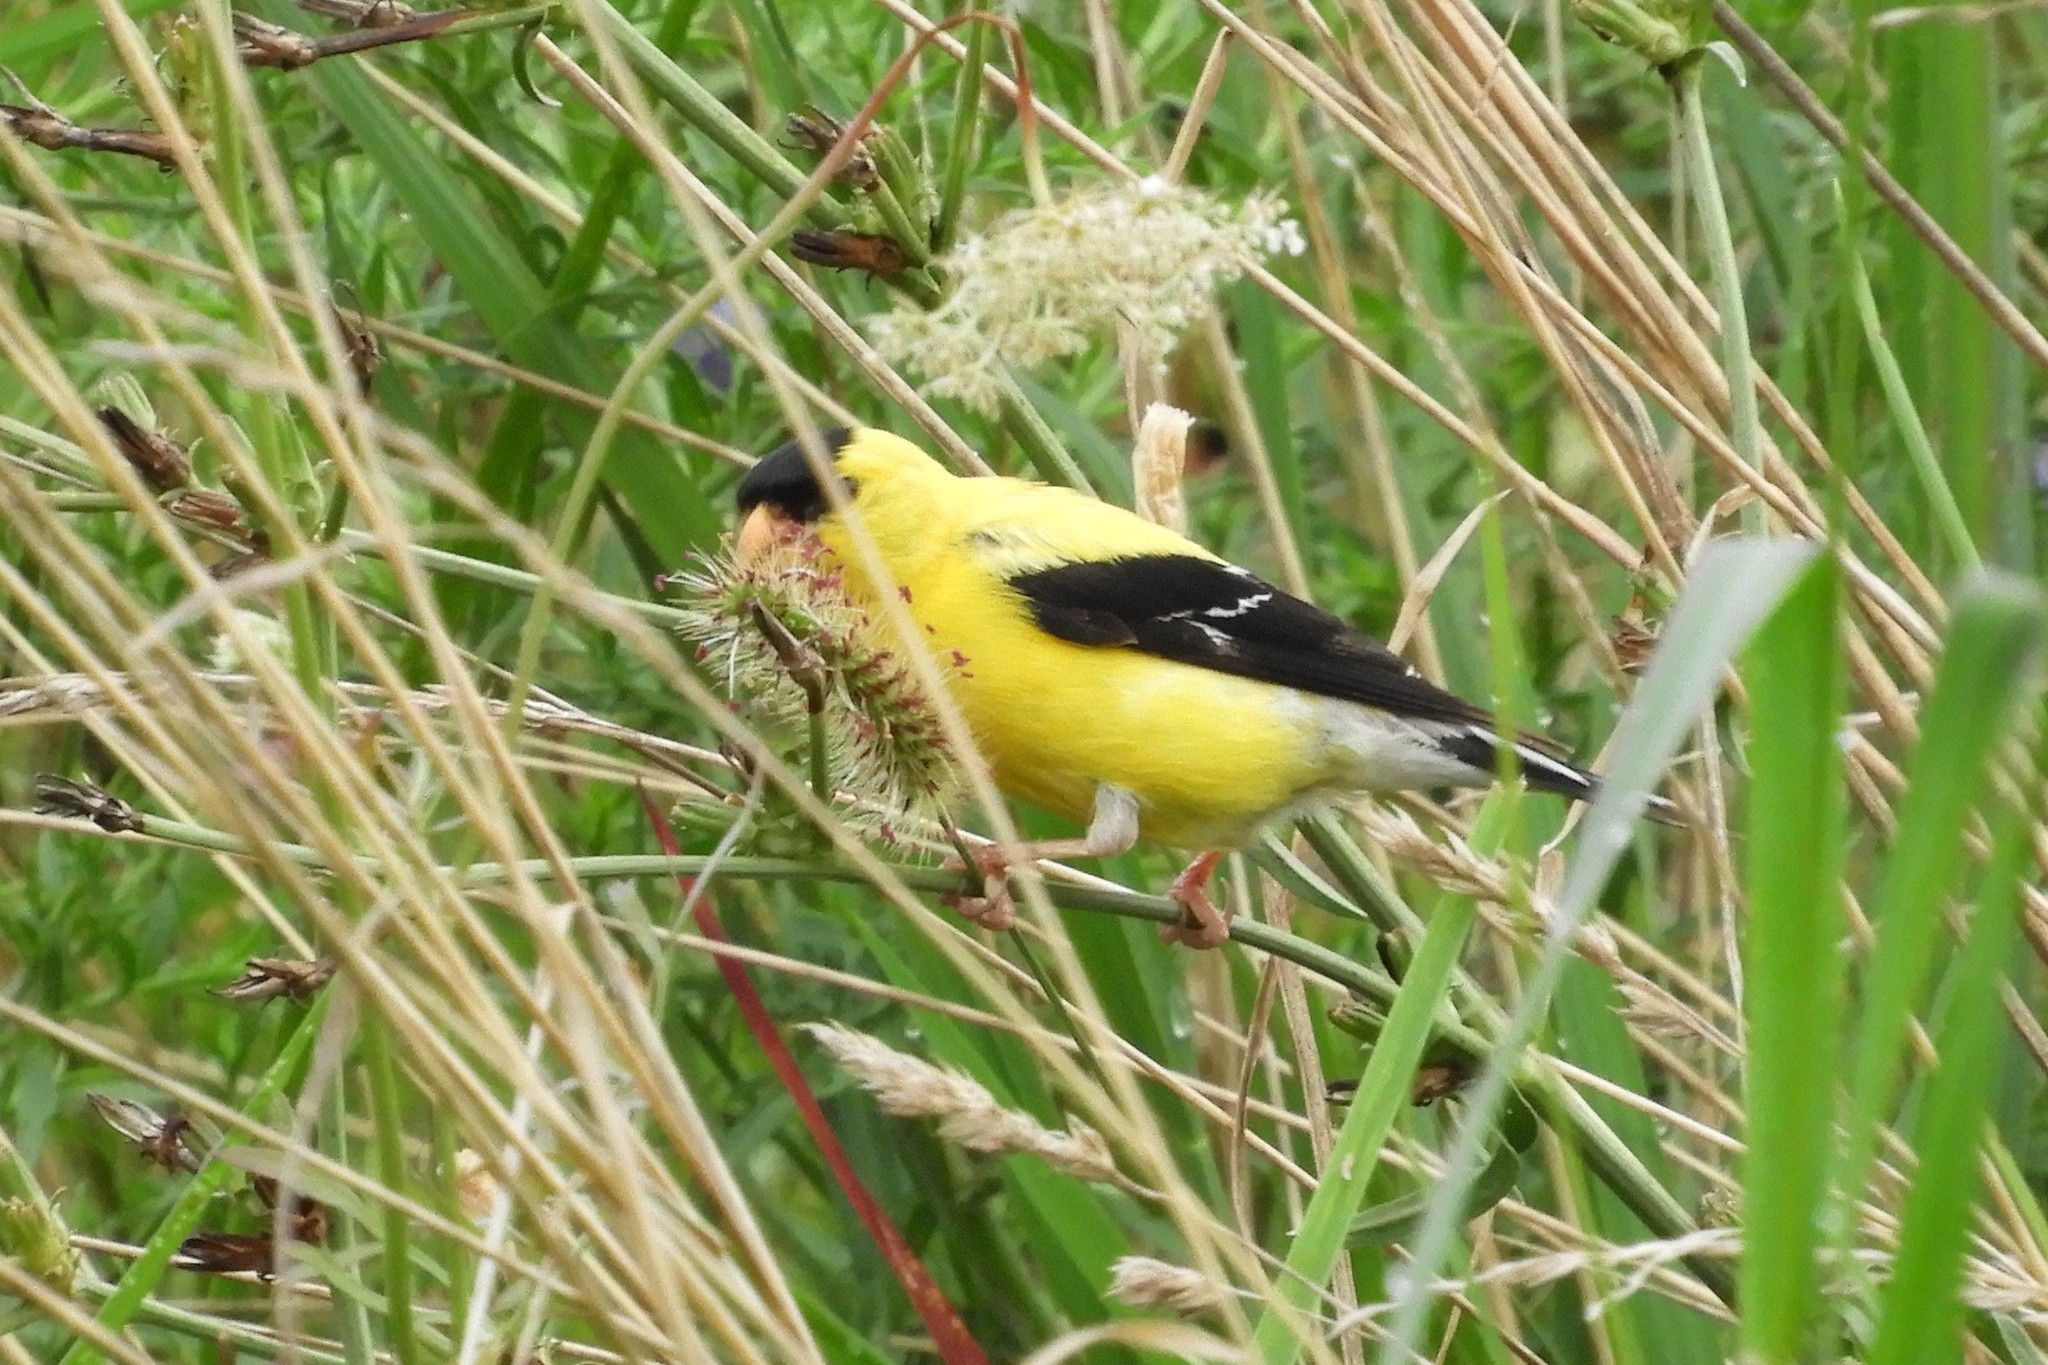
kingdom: Animalia
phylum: Chordata
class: Aves
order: Passeriformes
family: Fringillidae
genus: Spinus
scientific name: Spinus tristis
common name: American goldfinch
